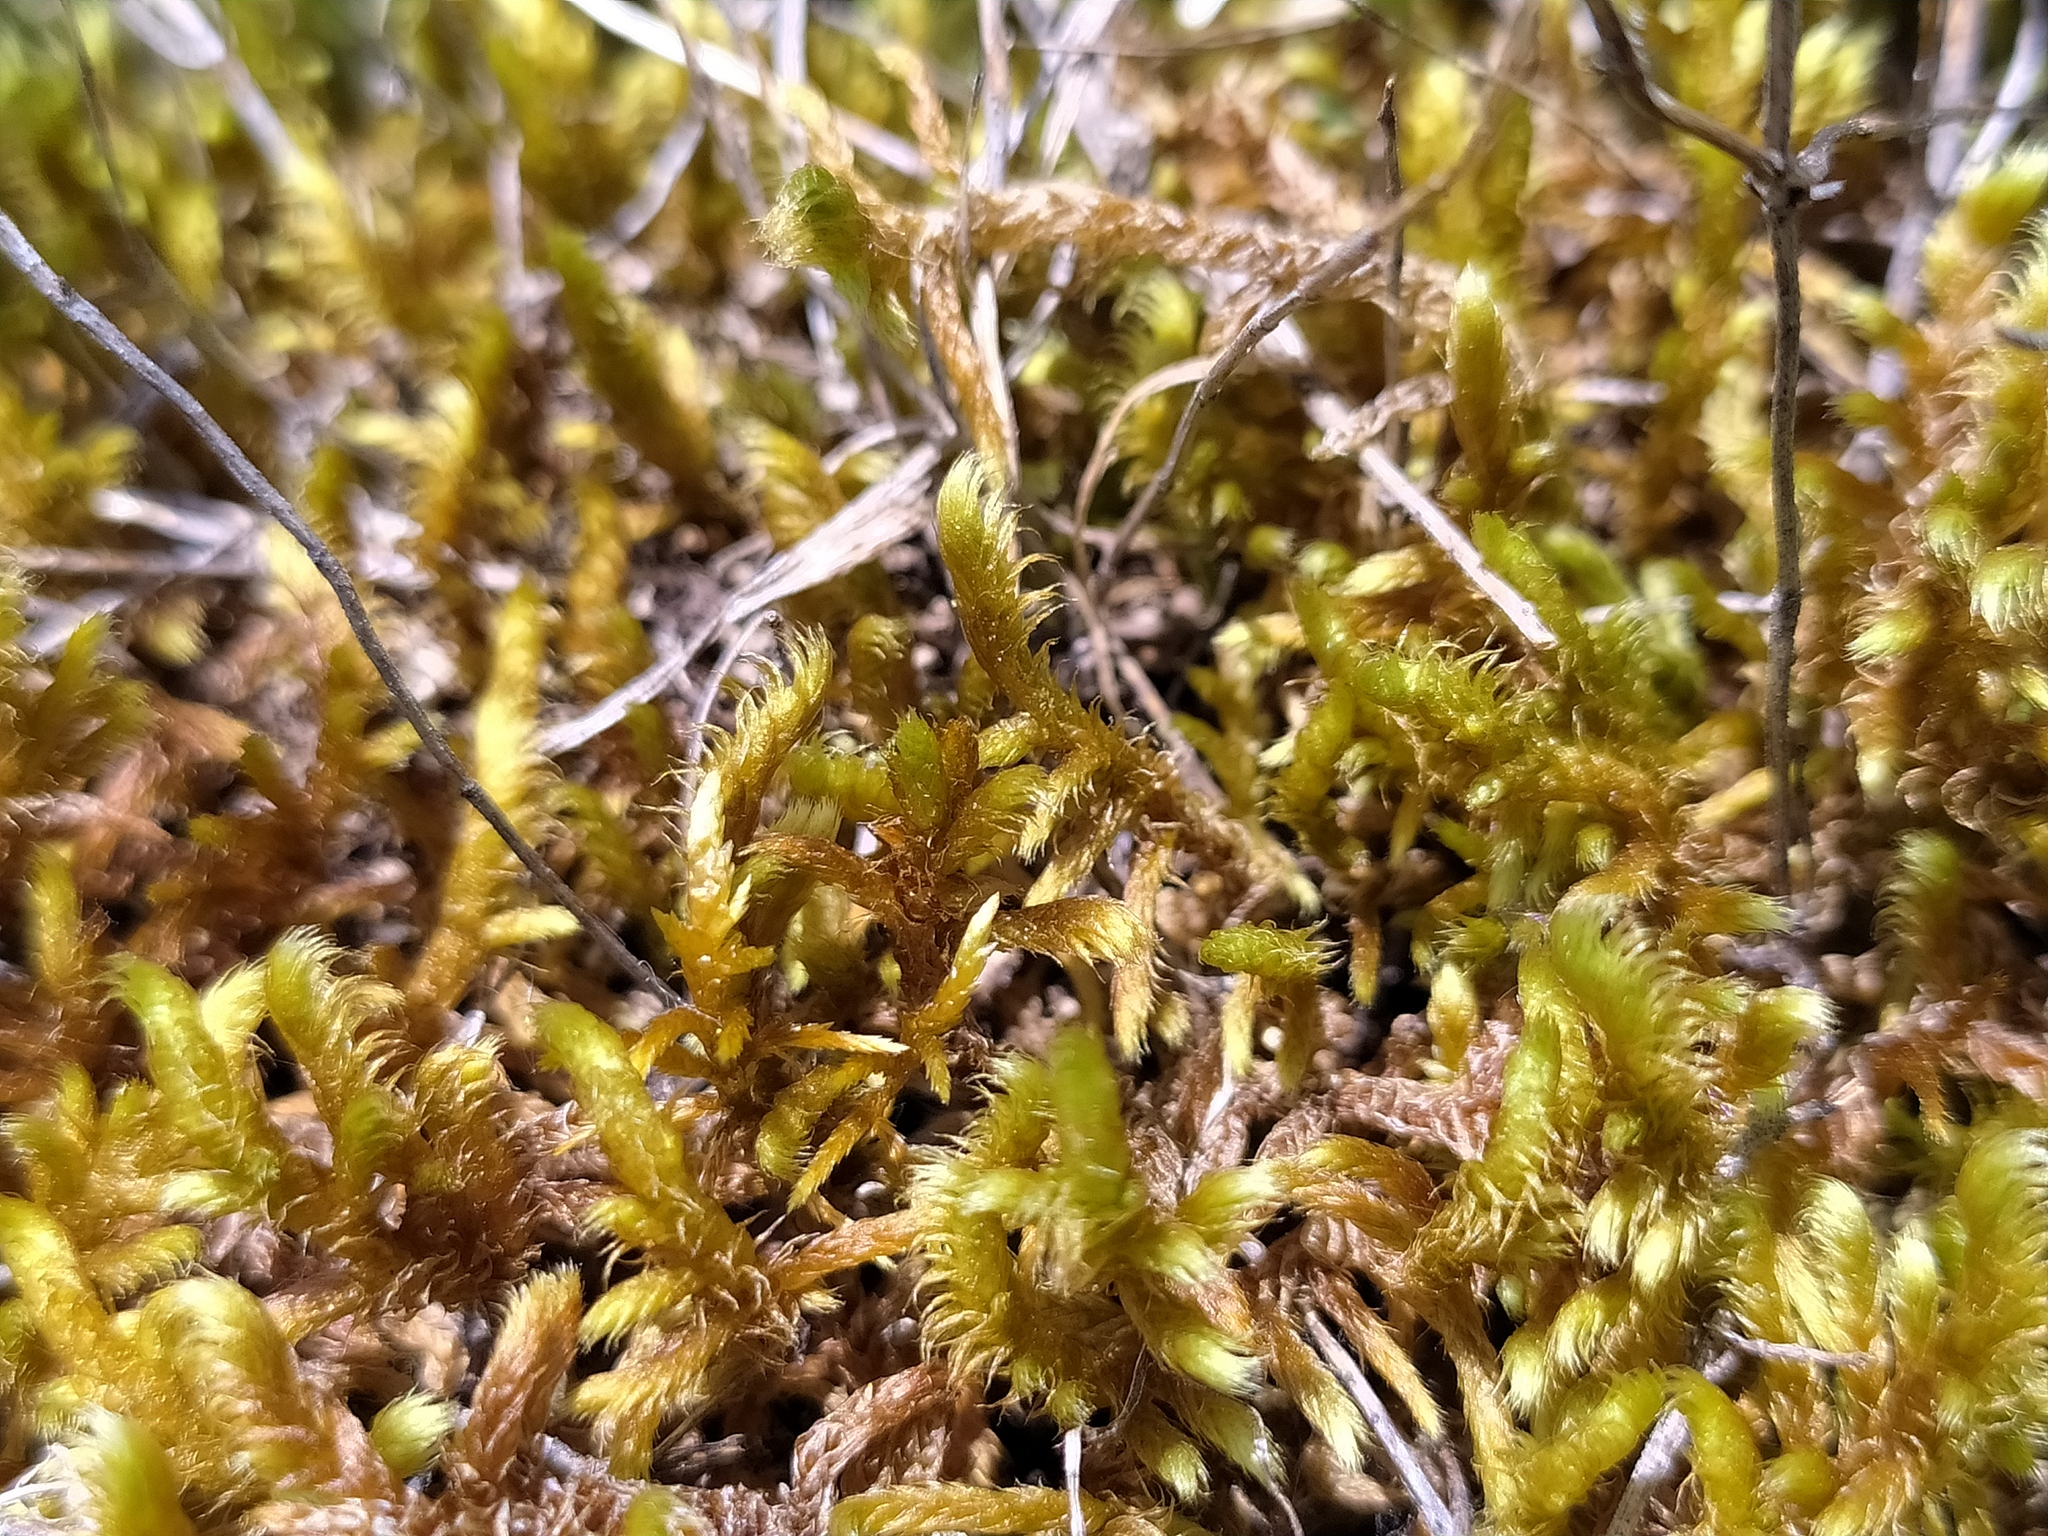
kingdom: Plantae
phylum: Bryophyta
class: Bryopsida
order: Hypnales
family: Rhytidiaceae
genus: Rhytidium
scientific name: Rhytidium rugosum
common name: Wrinkle-leaved moss
